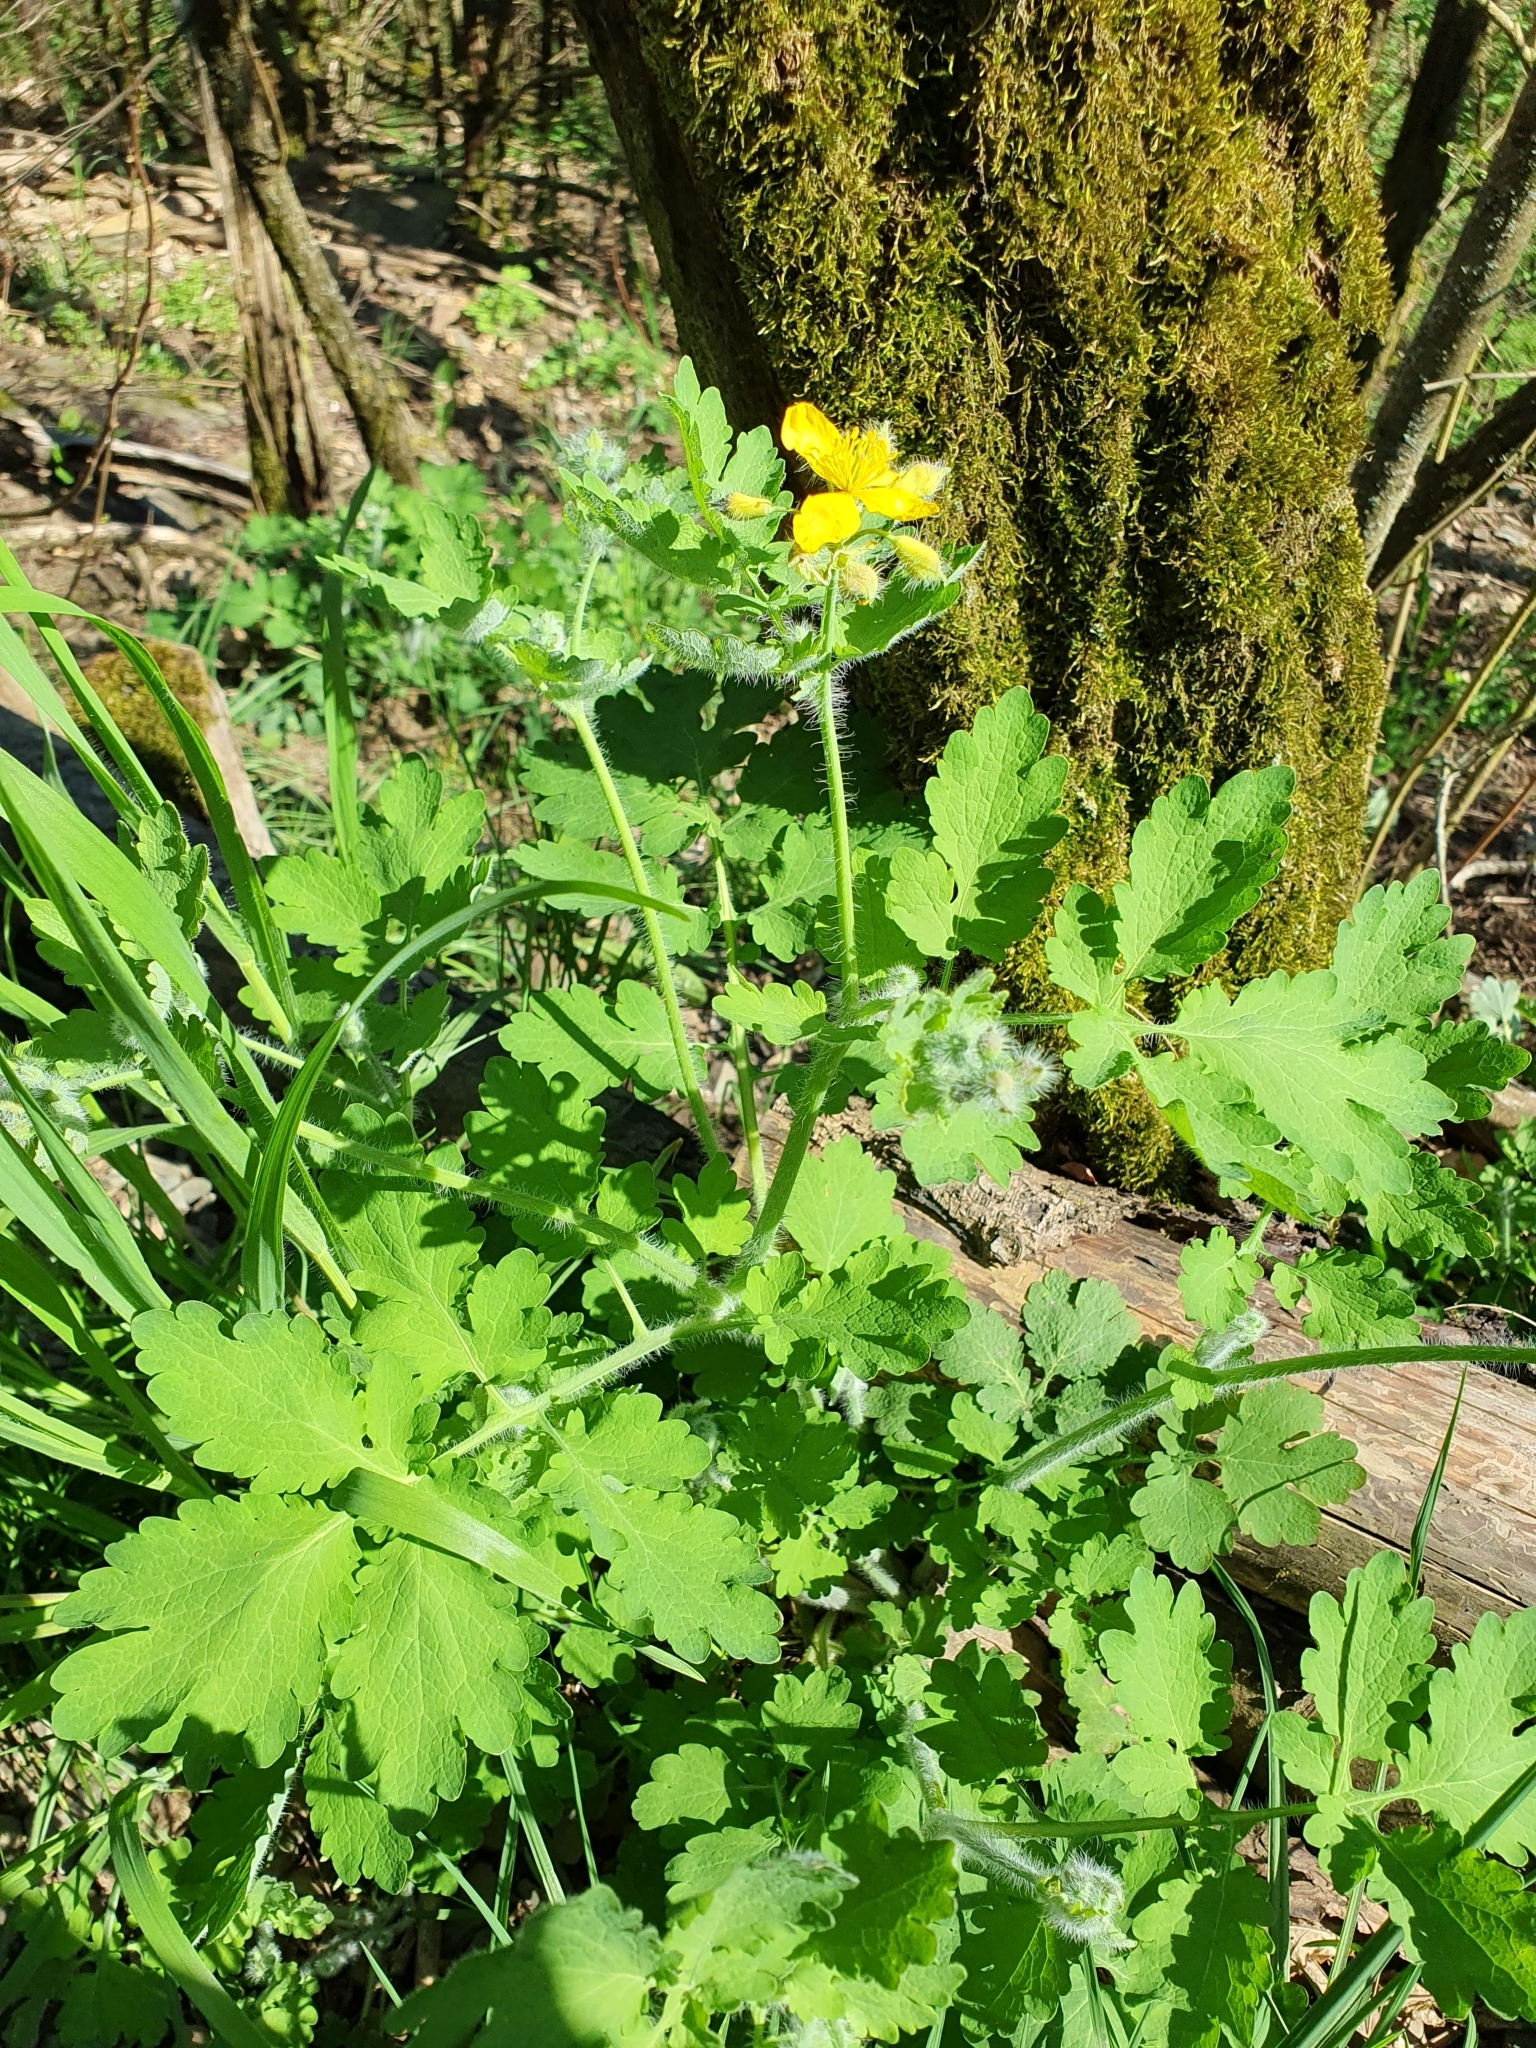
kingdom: Plantae
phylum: Tracheophyta
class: Magnoliopsida
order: Ranunculales
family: Papaveraceae
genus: Chelidonium
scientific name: Chelidonium majus
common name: Greater celandine
